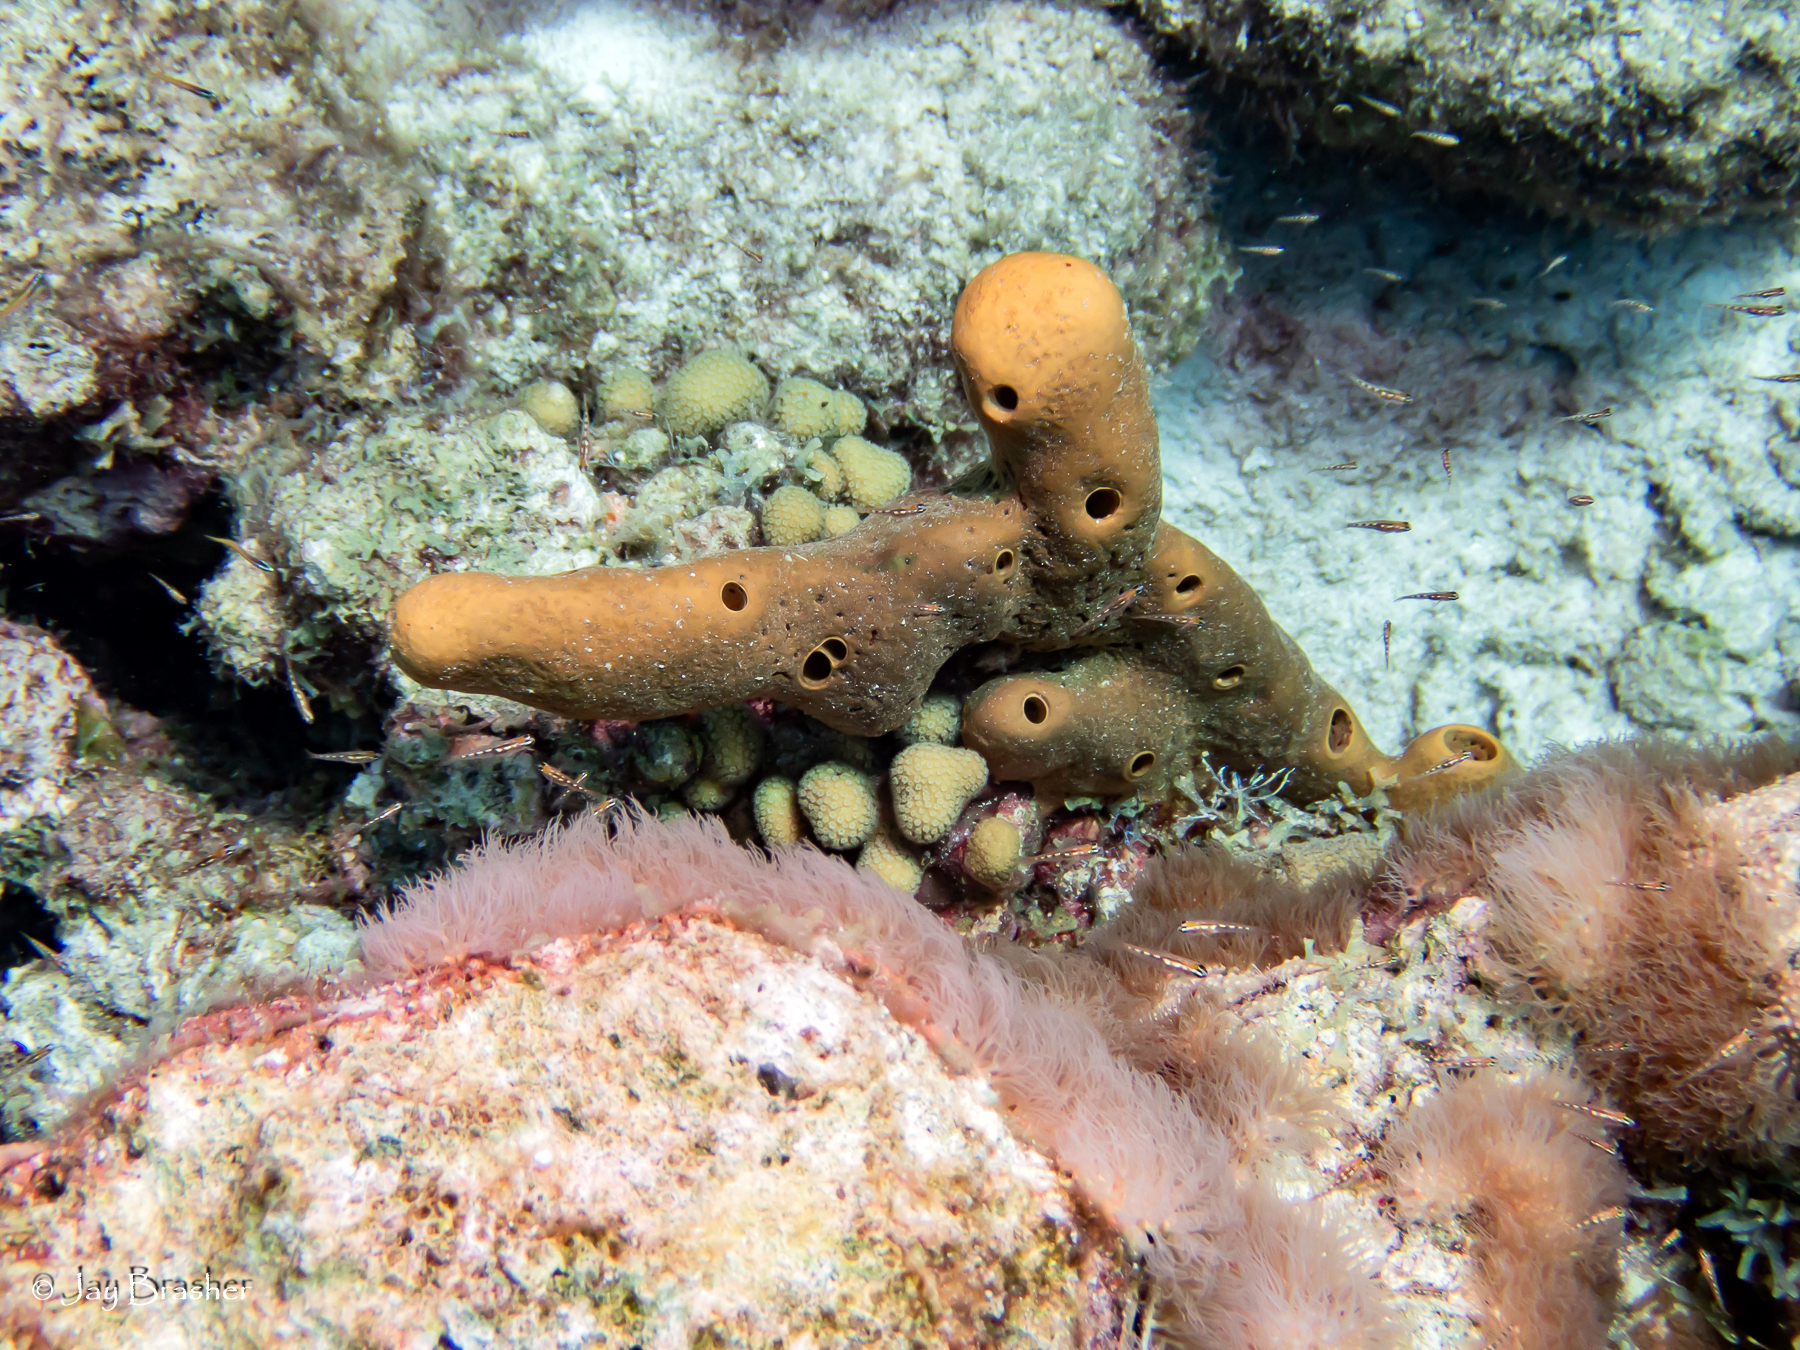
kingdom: Animalia
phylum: Porifera
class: Demospongiae
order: Agelasida
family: Agelasidae
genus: Agelas
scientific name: Agelas conifera
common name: Brown tube sponge
